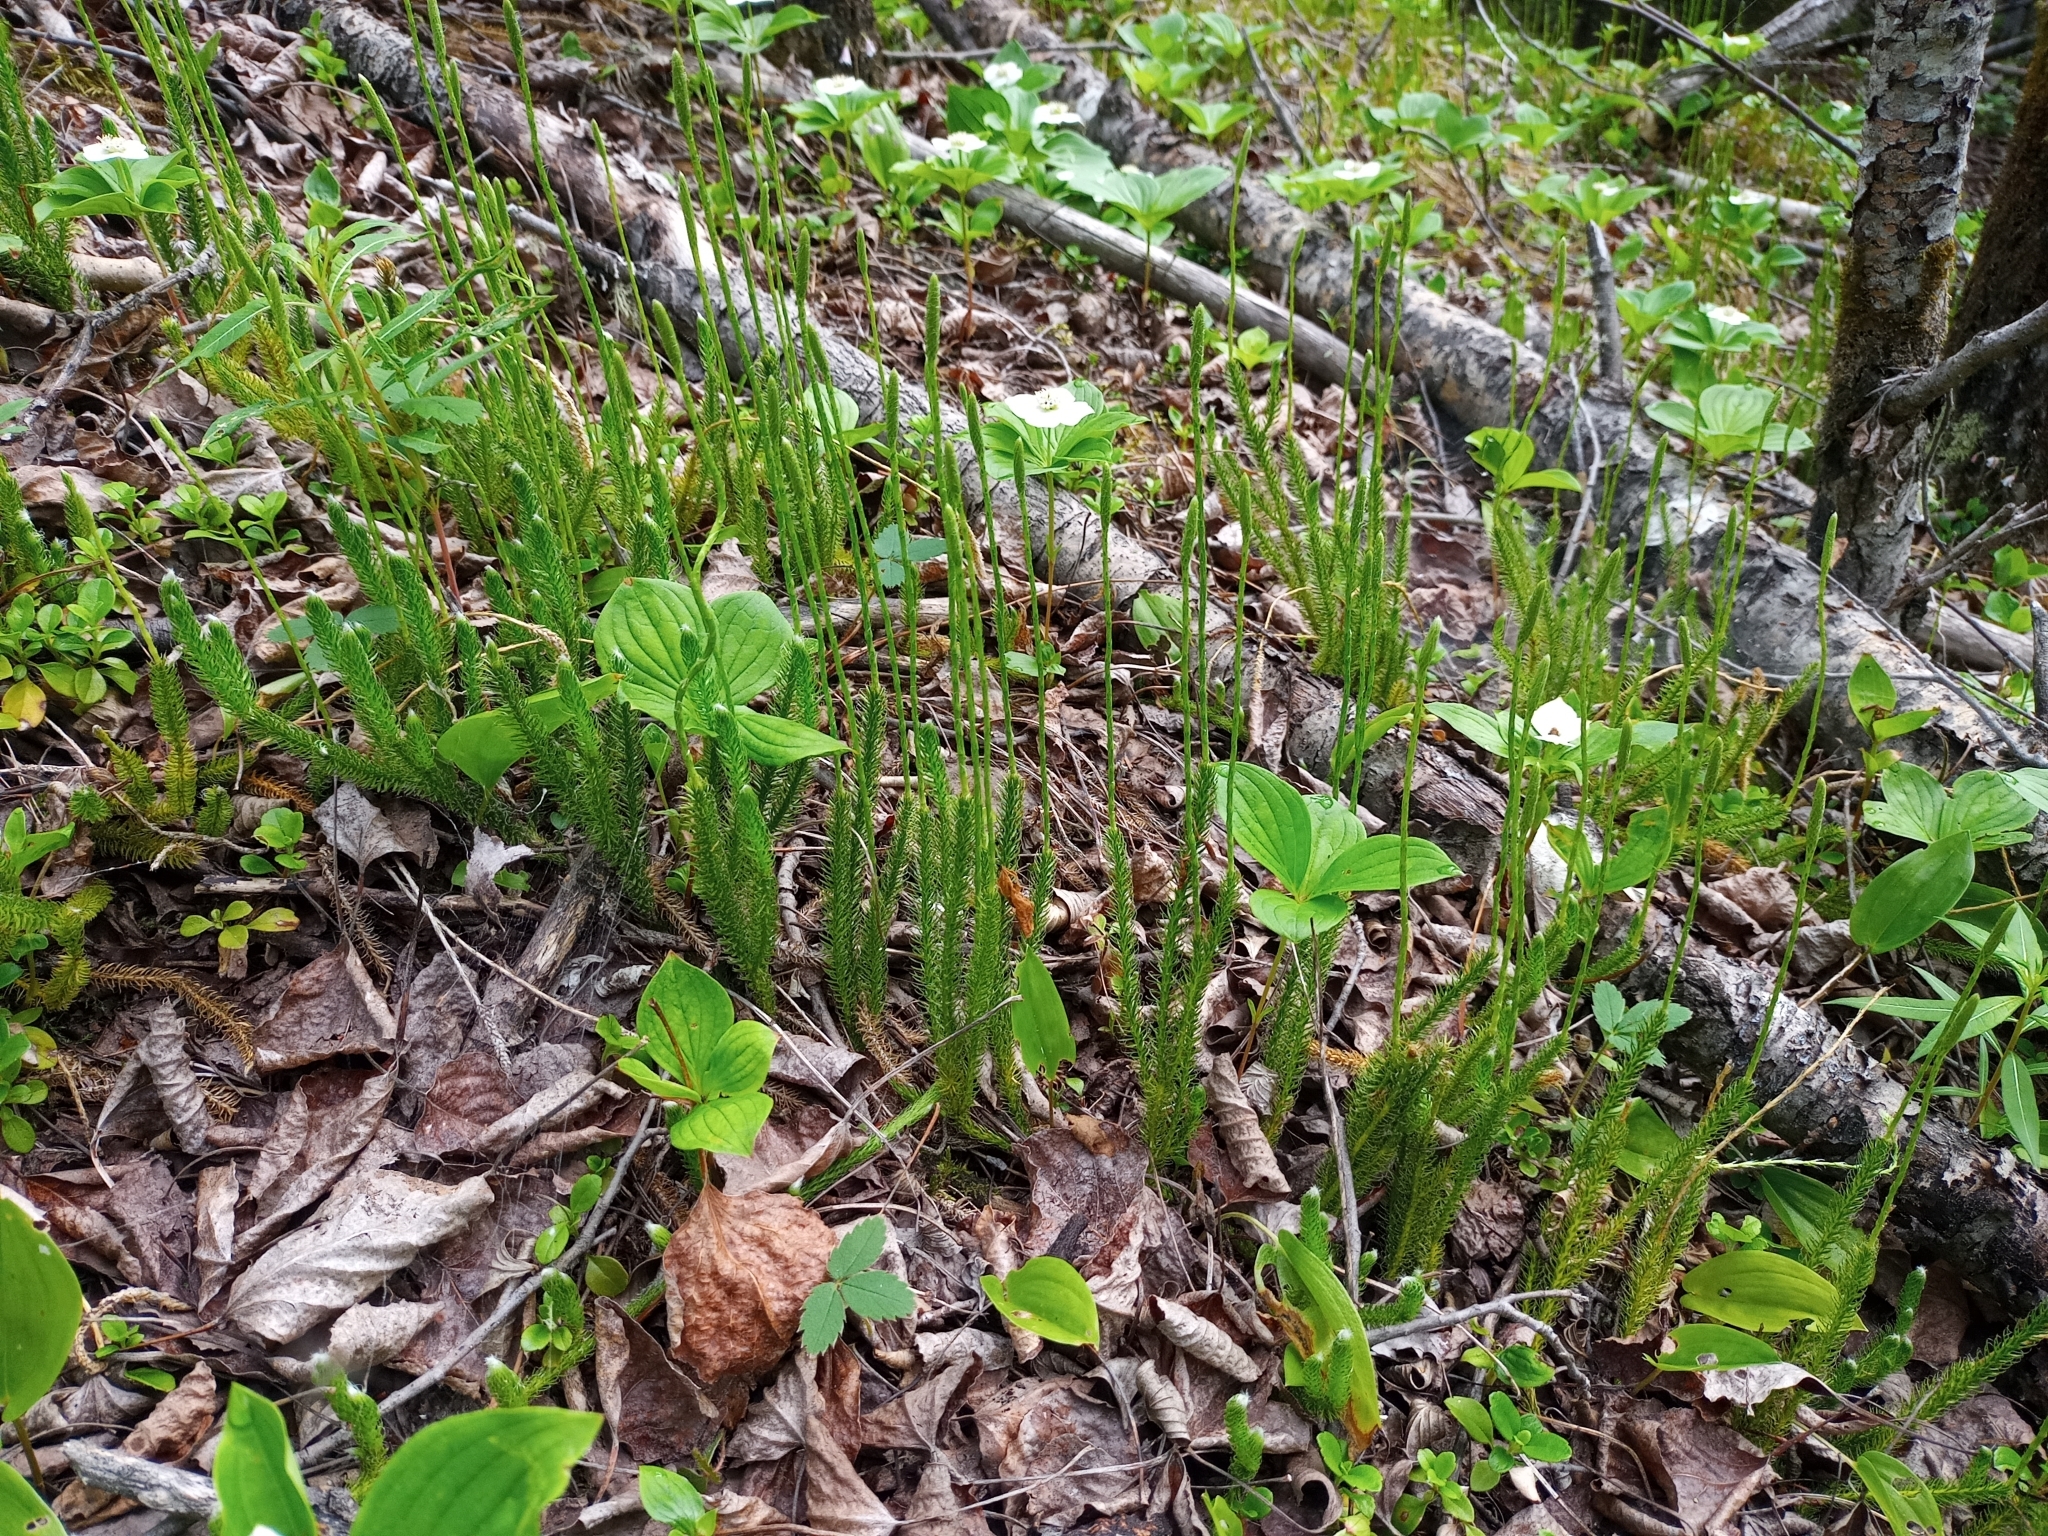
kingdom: Plantae
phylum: Tracheophyta
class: Lycopodiopsida
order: Lycopodiales
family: Lycopodiaceae
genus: Lycopodium
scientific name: Lycopodium lagopus
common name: One-cone clubmoss
